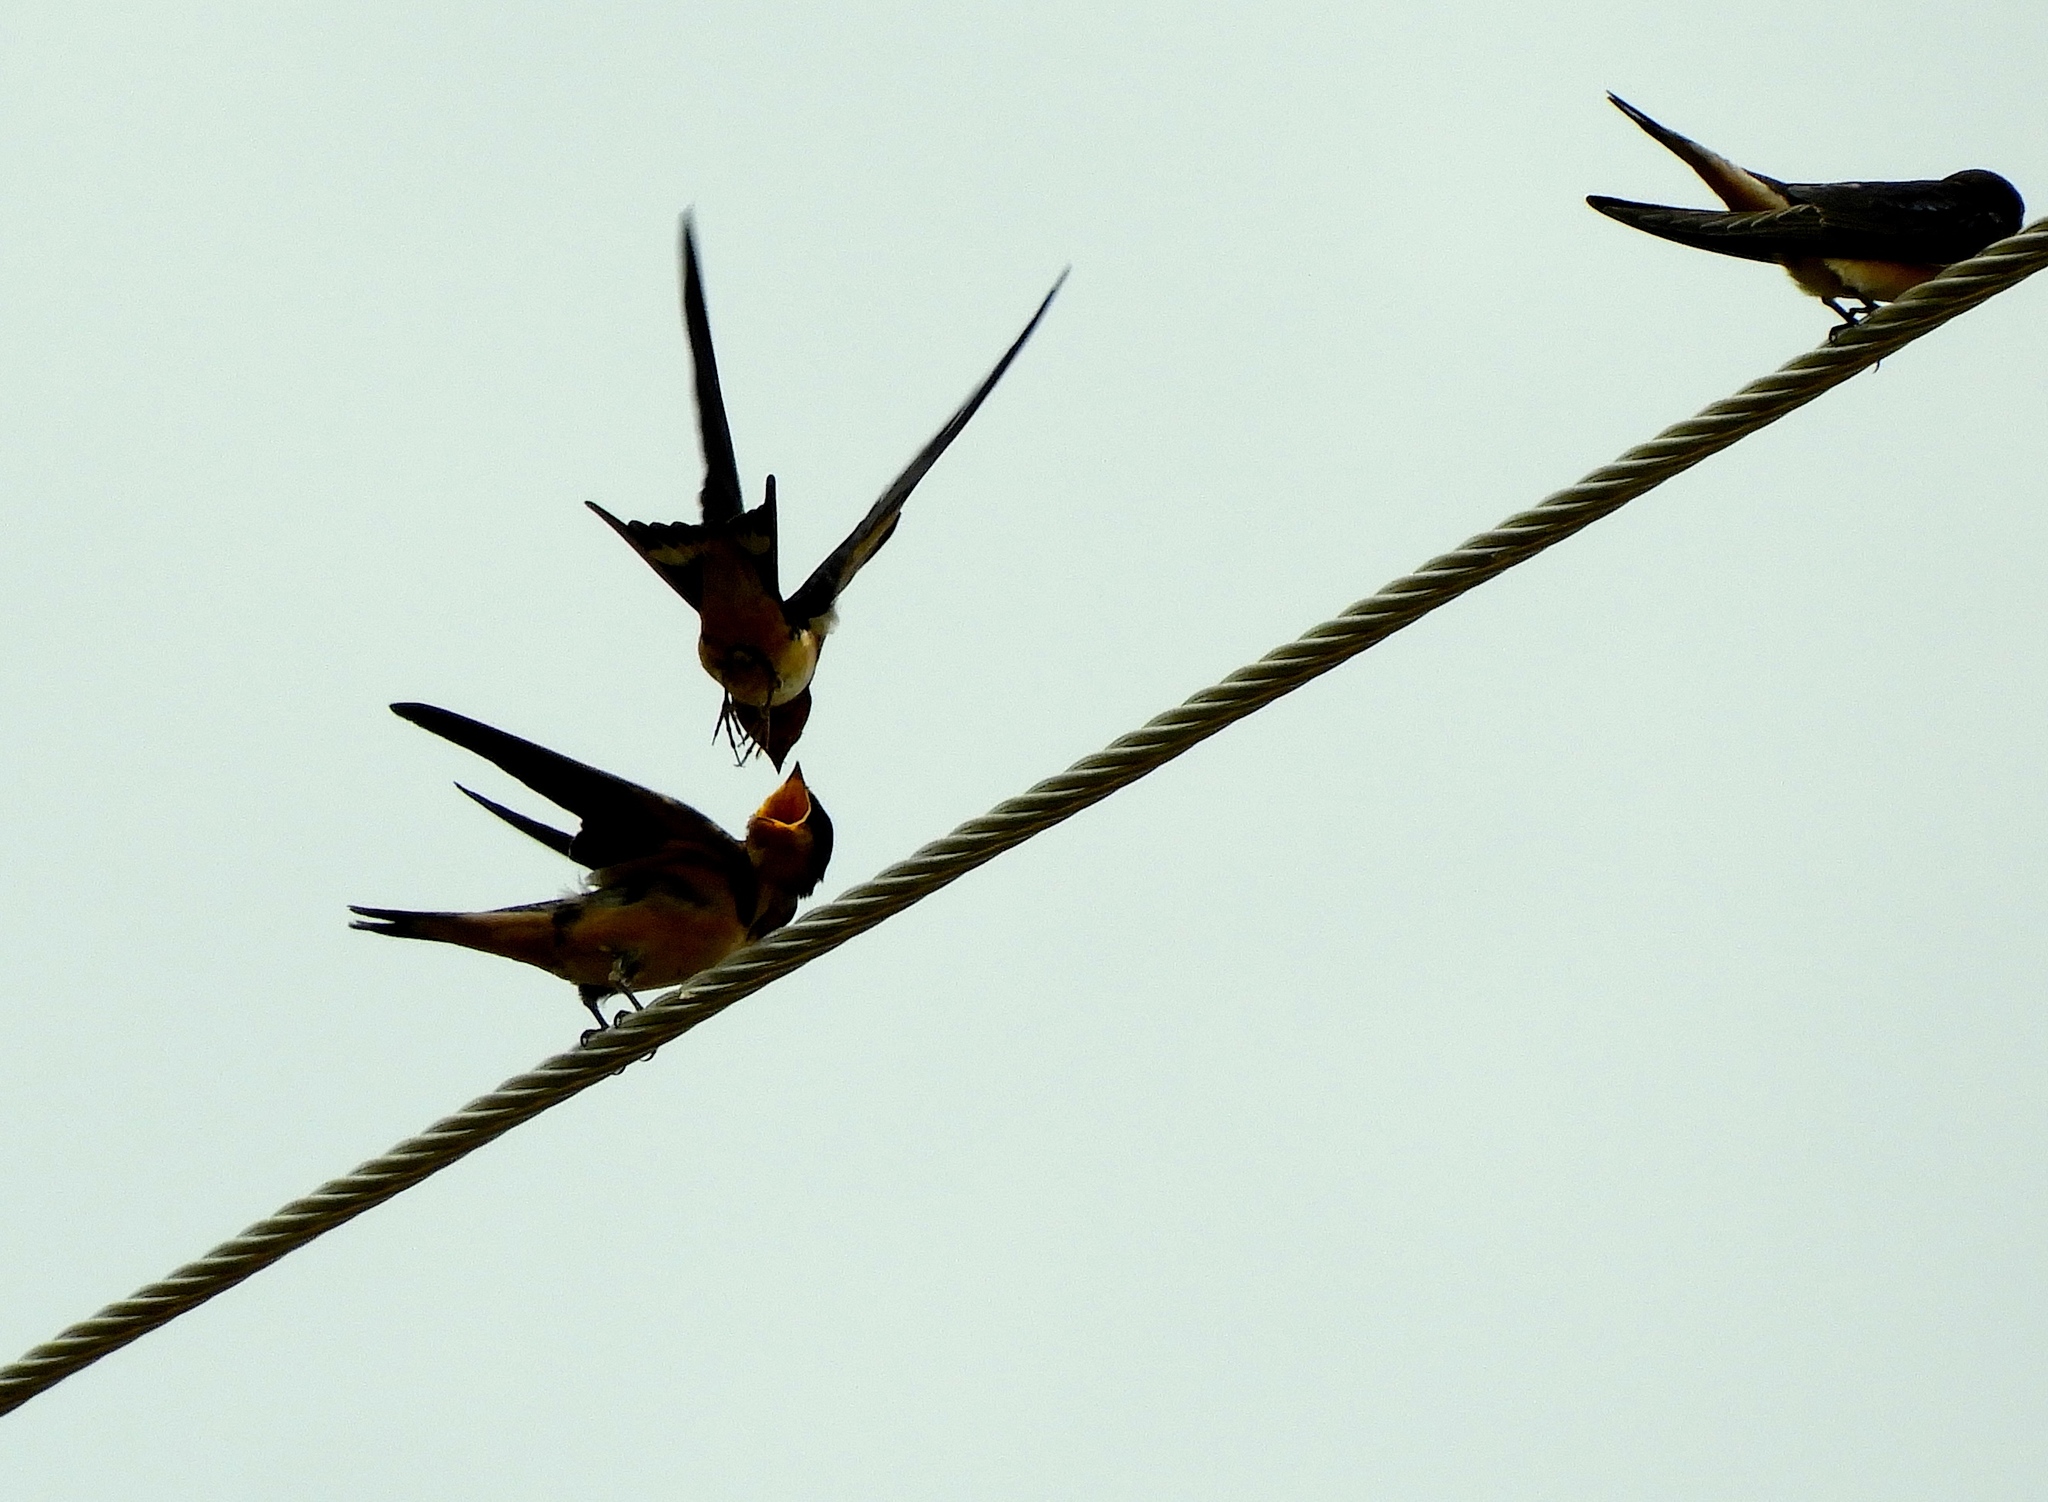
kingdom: Animalia
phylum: Chordata
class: Aves
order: Passeriformes
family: Hirundinidae
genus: Hirundo
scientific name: Hirundo rustica
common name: Barn swallow
